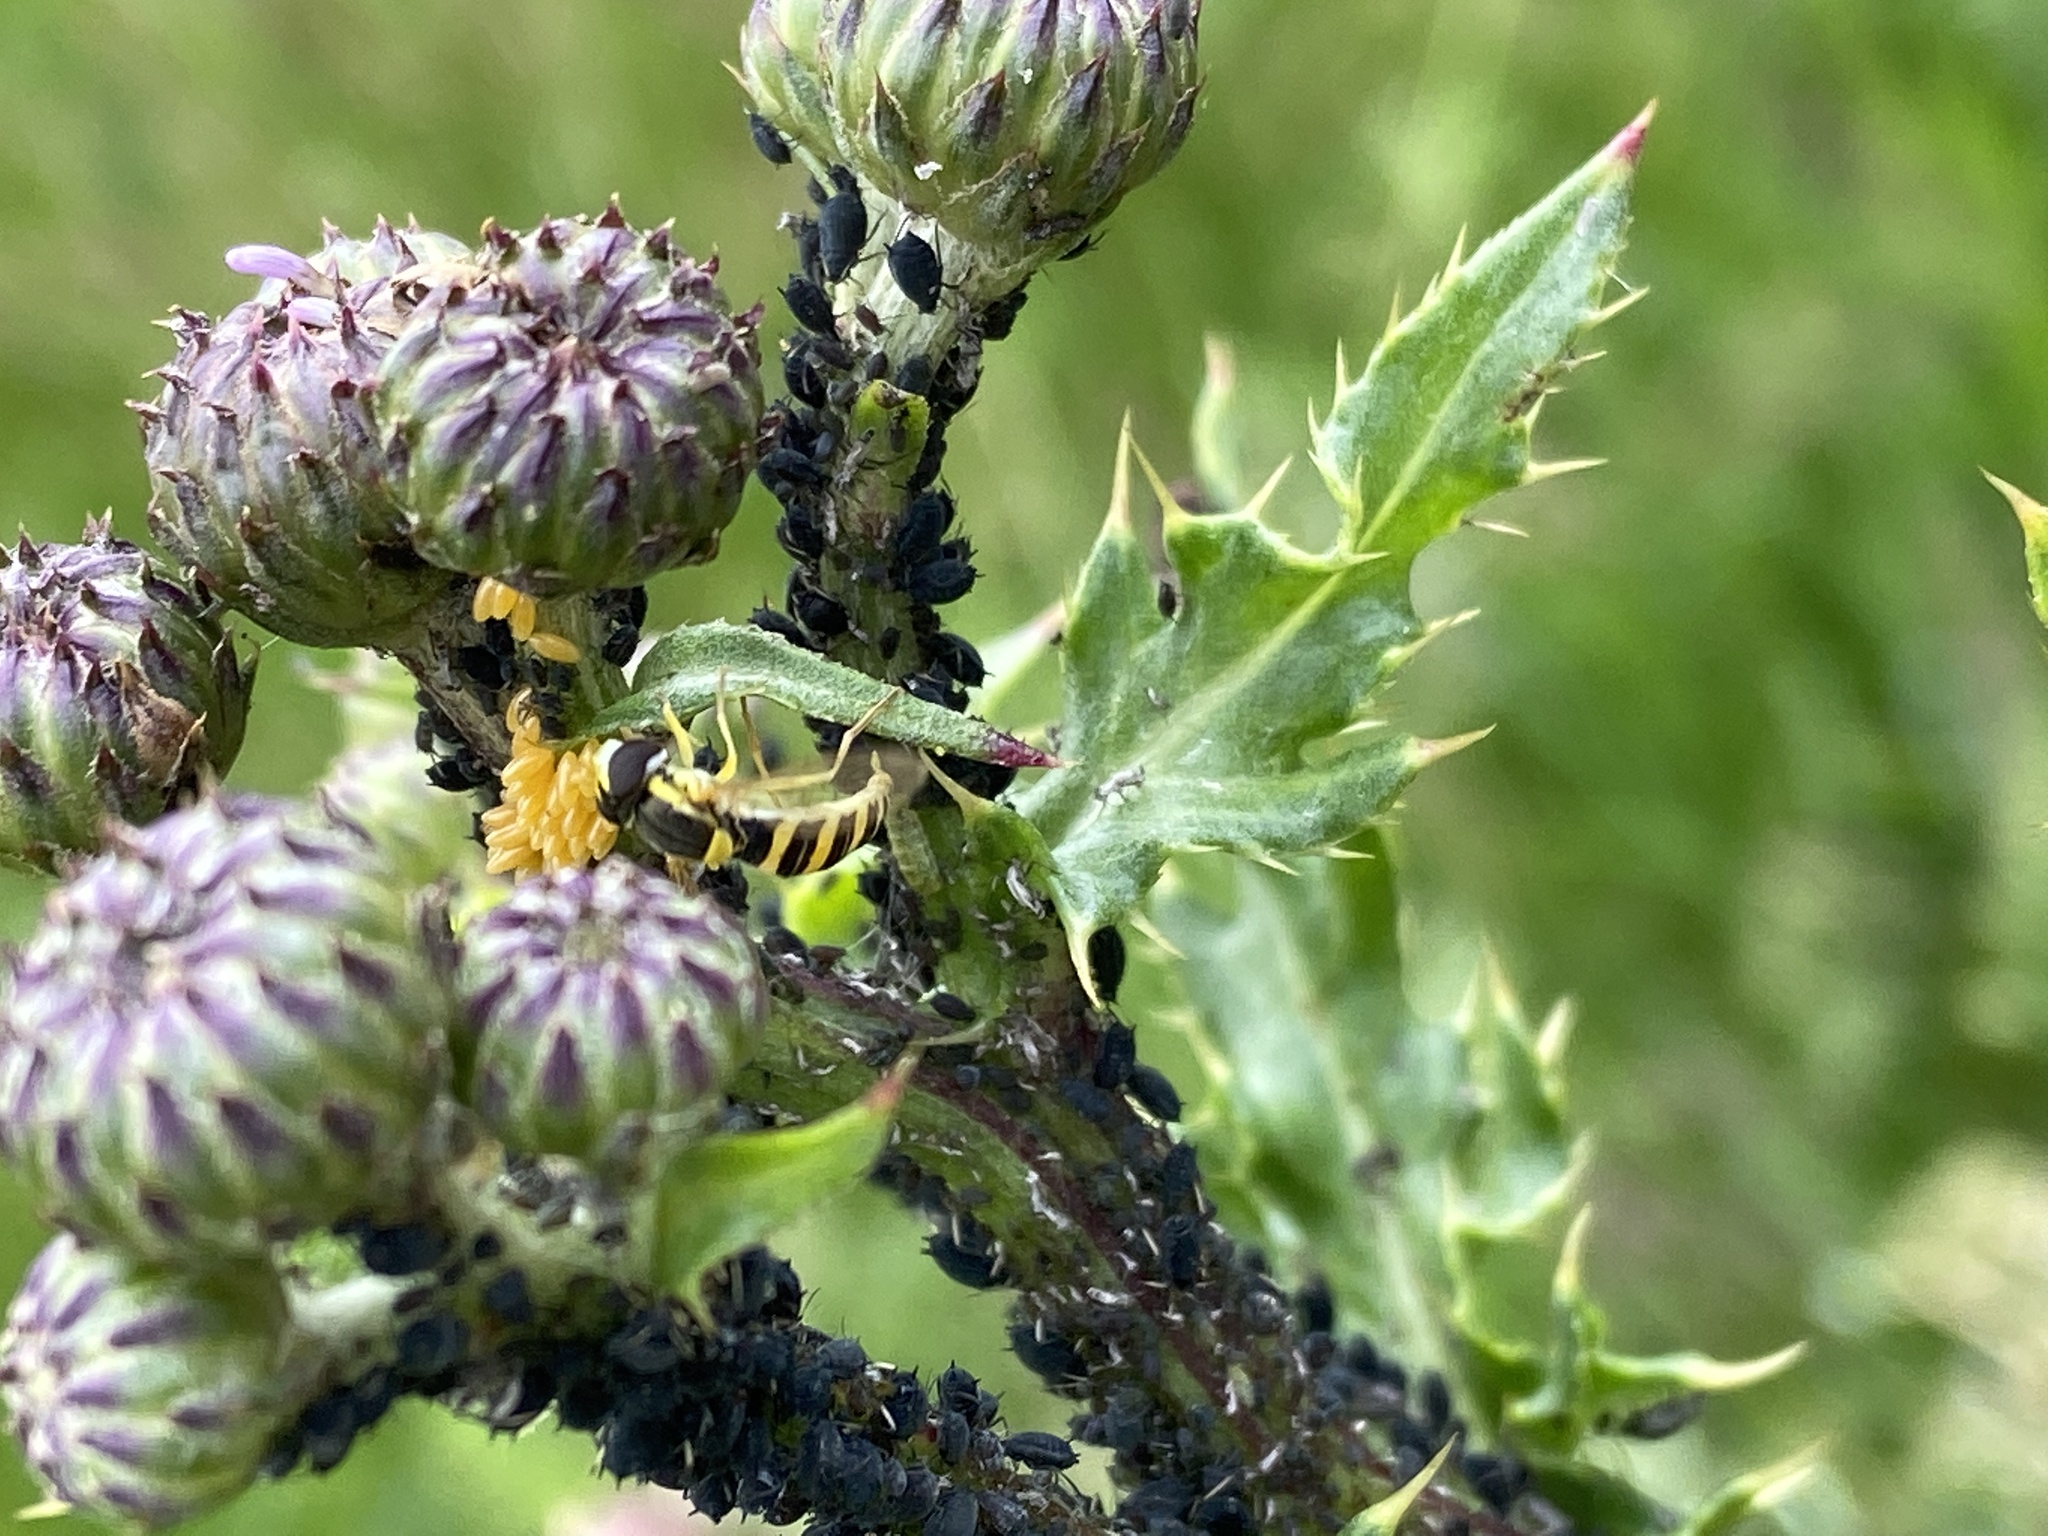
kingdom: Animalia
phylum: Arthropoda
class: Insecta
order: Diptera
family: Syrphidae
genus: Sphaerophoria
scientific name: Sphaerophoria
